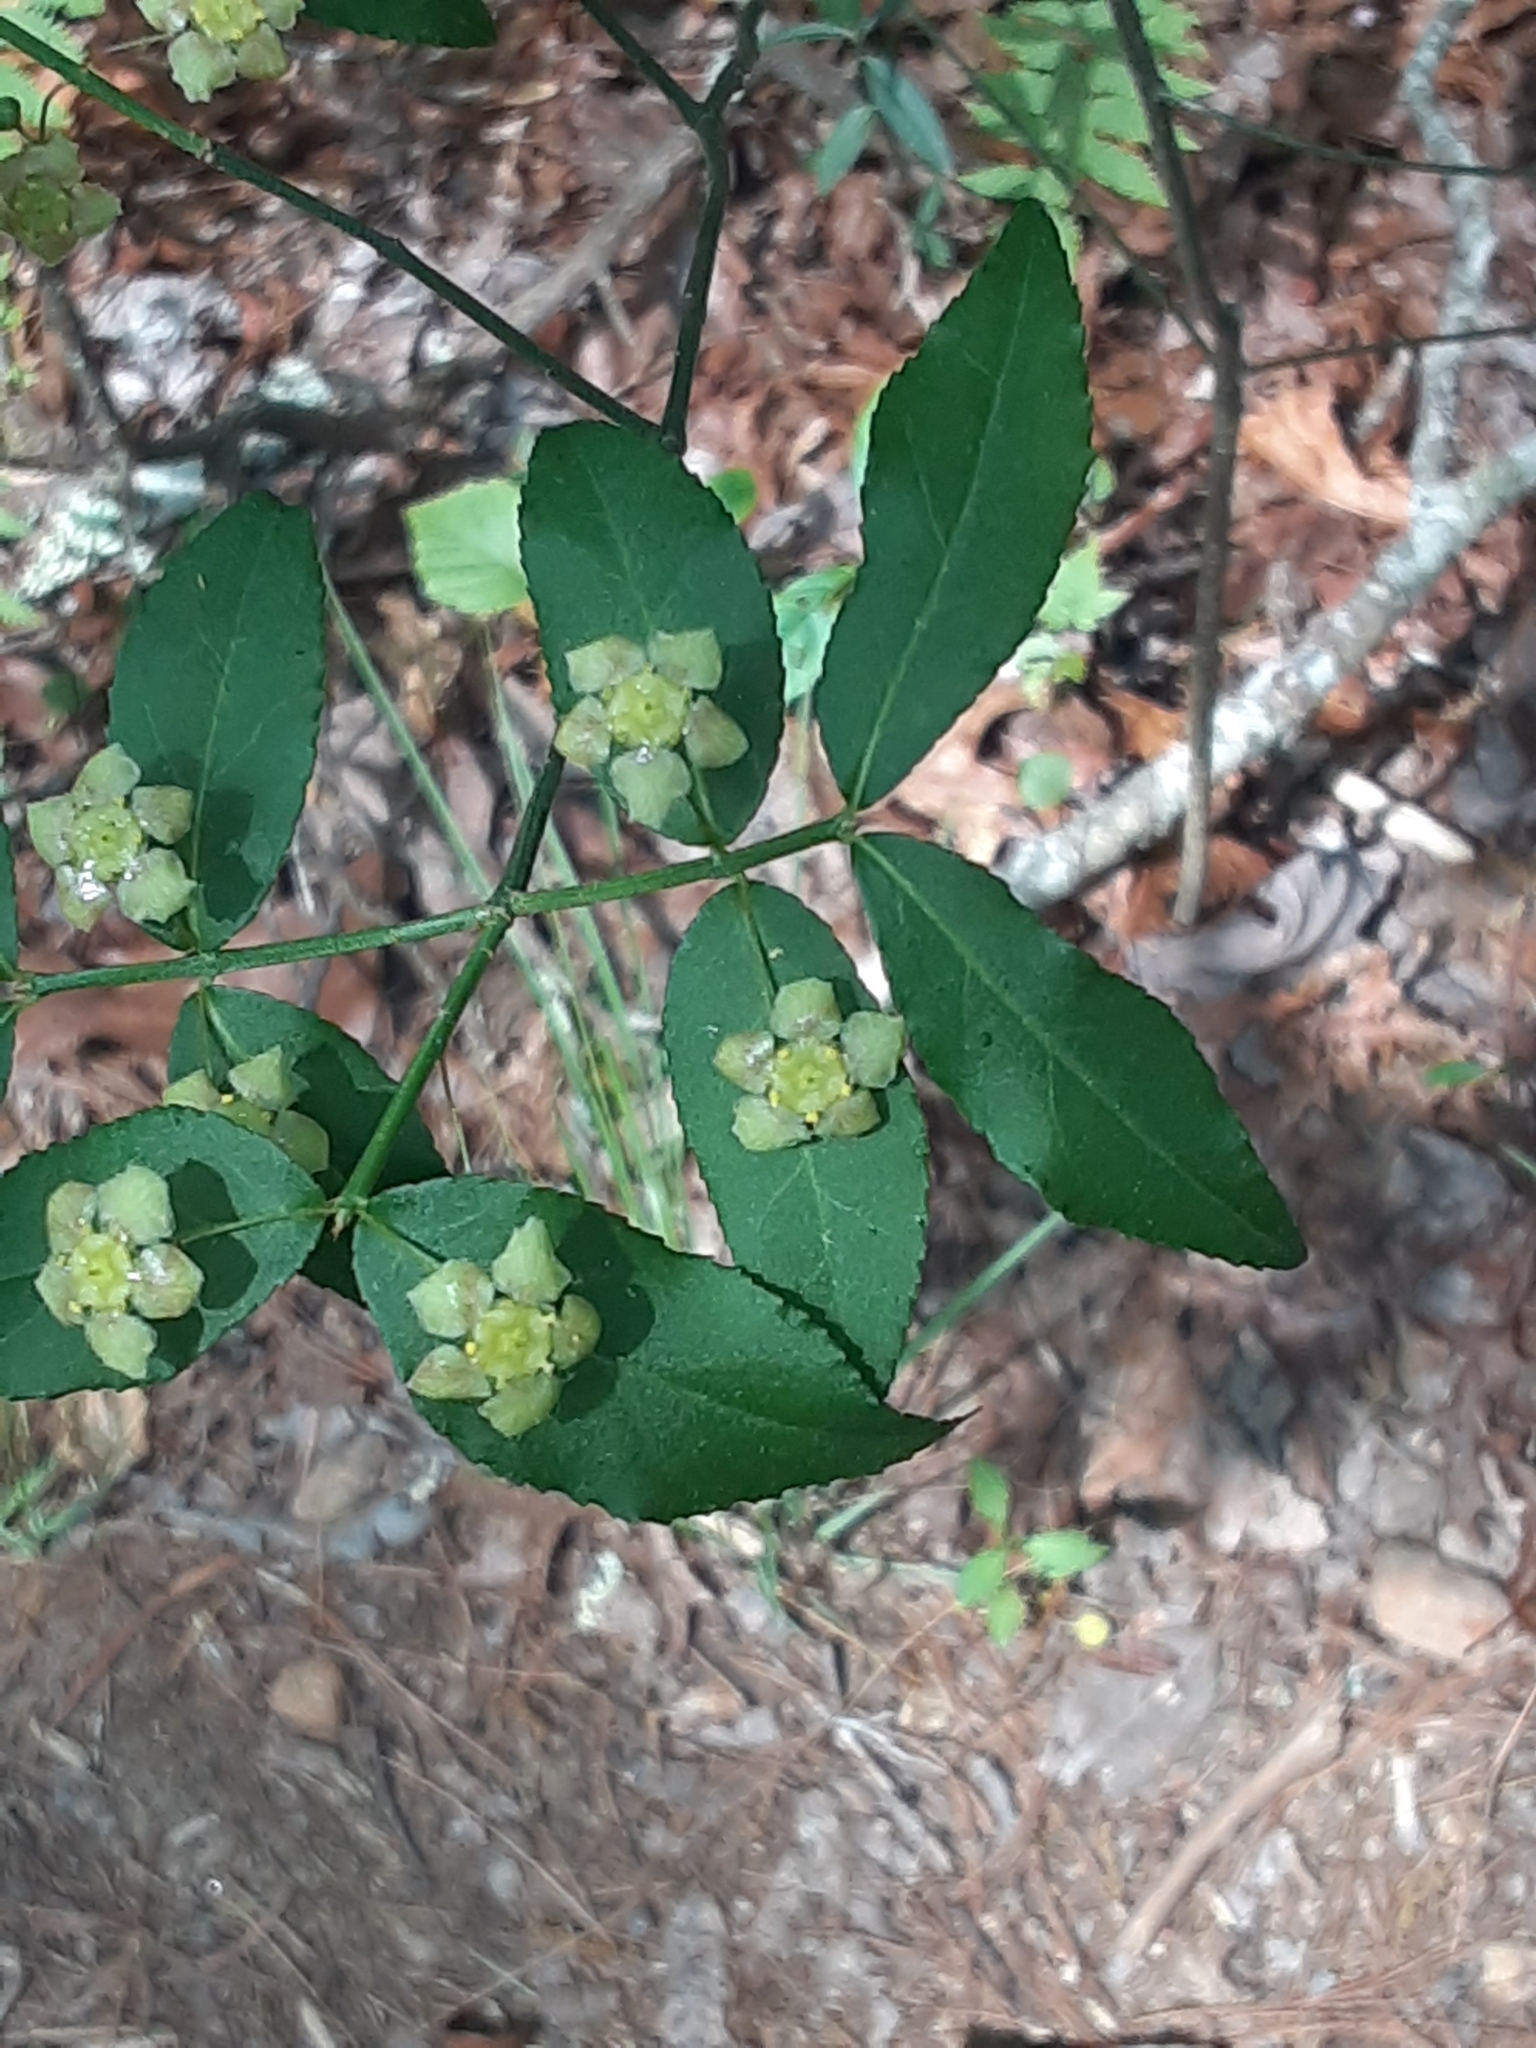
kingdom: Plantae
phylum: Tracheophyta
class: Magnoliopsida
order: Celastrales
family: Celastraceae
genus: Euonymus
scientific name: Euonymus americanus
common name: Bursting-heart
